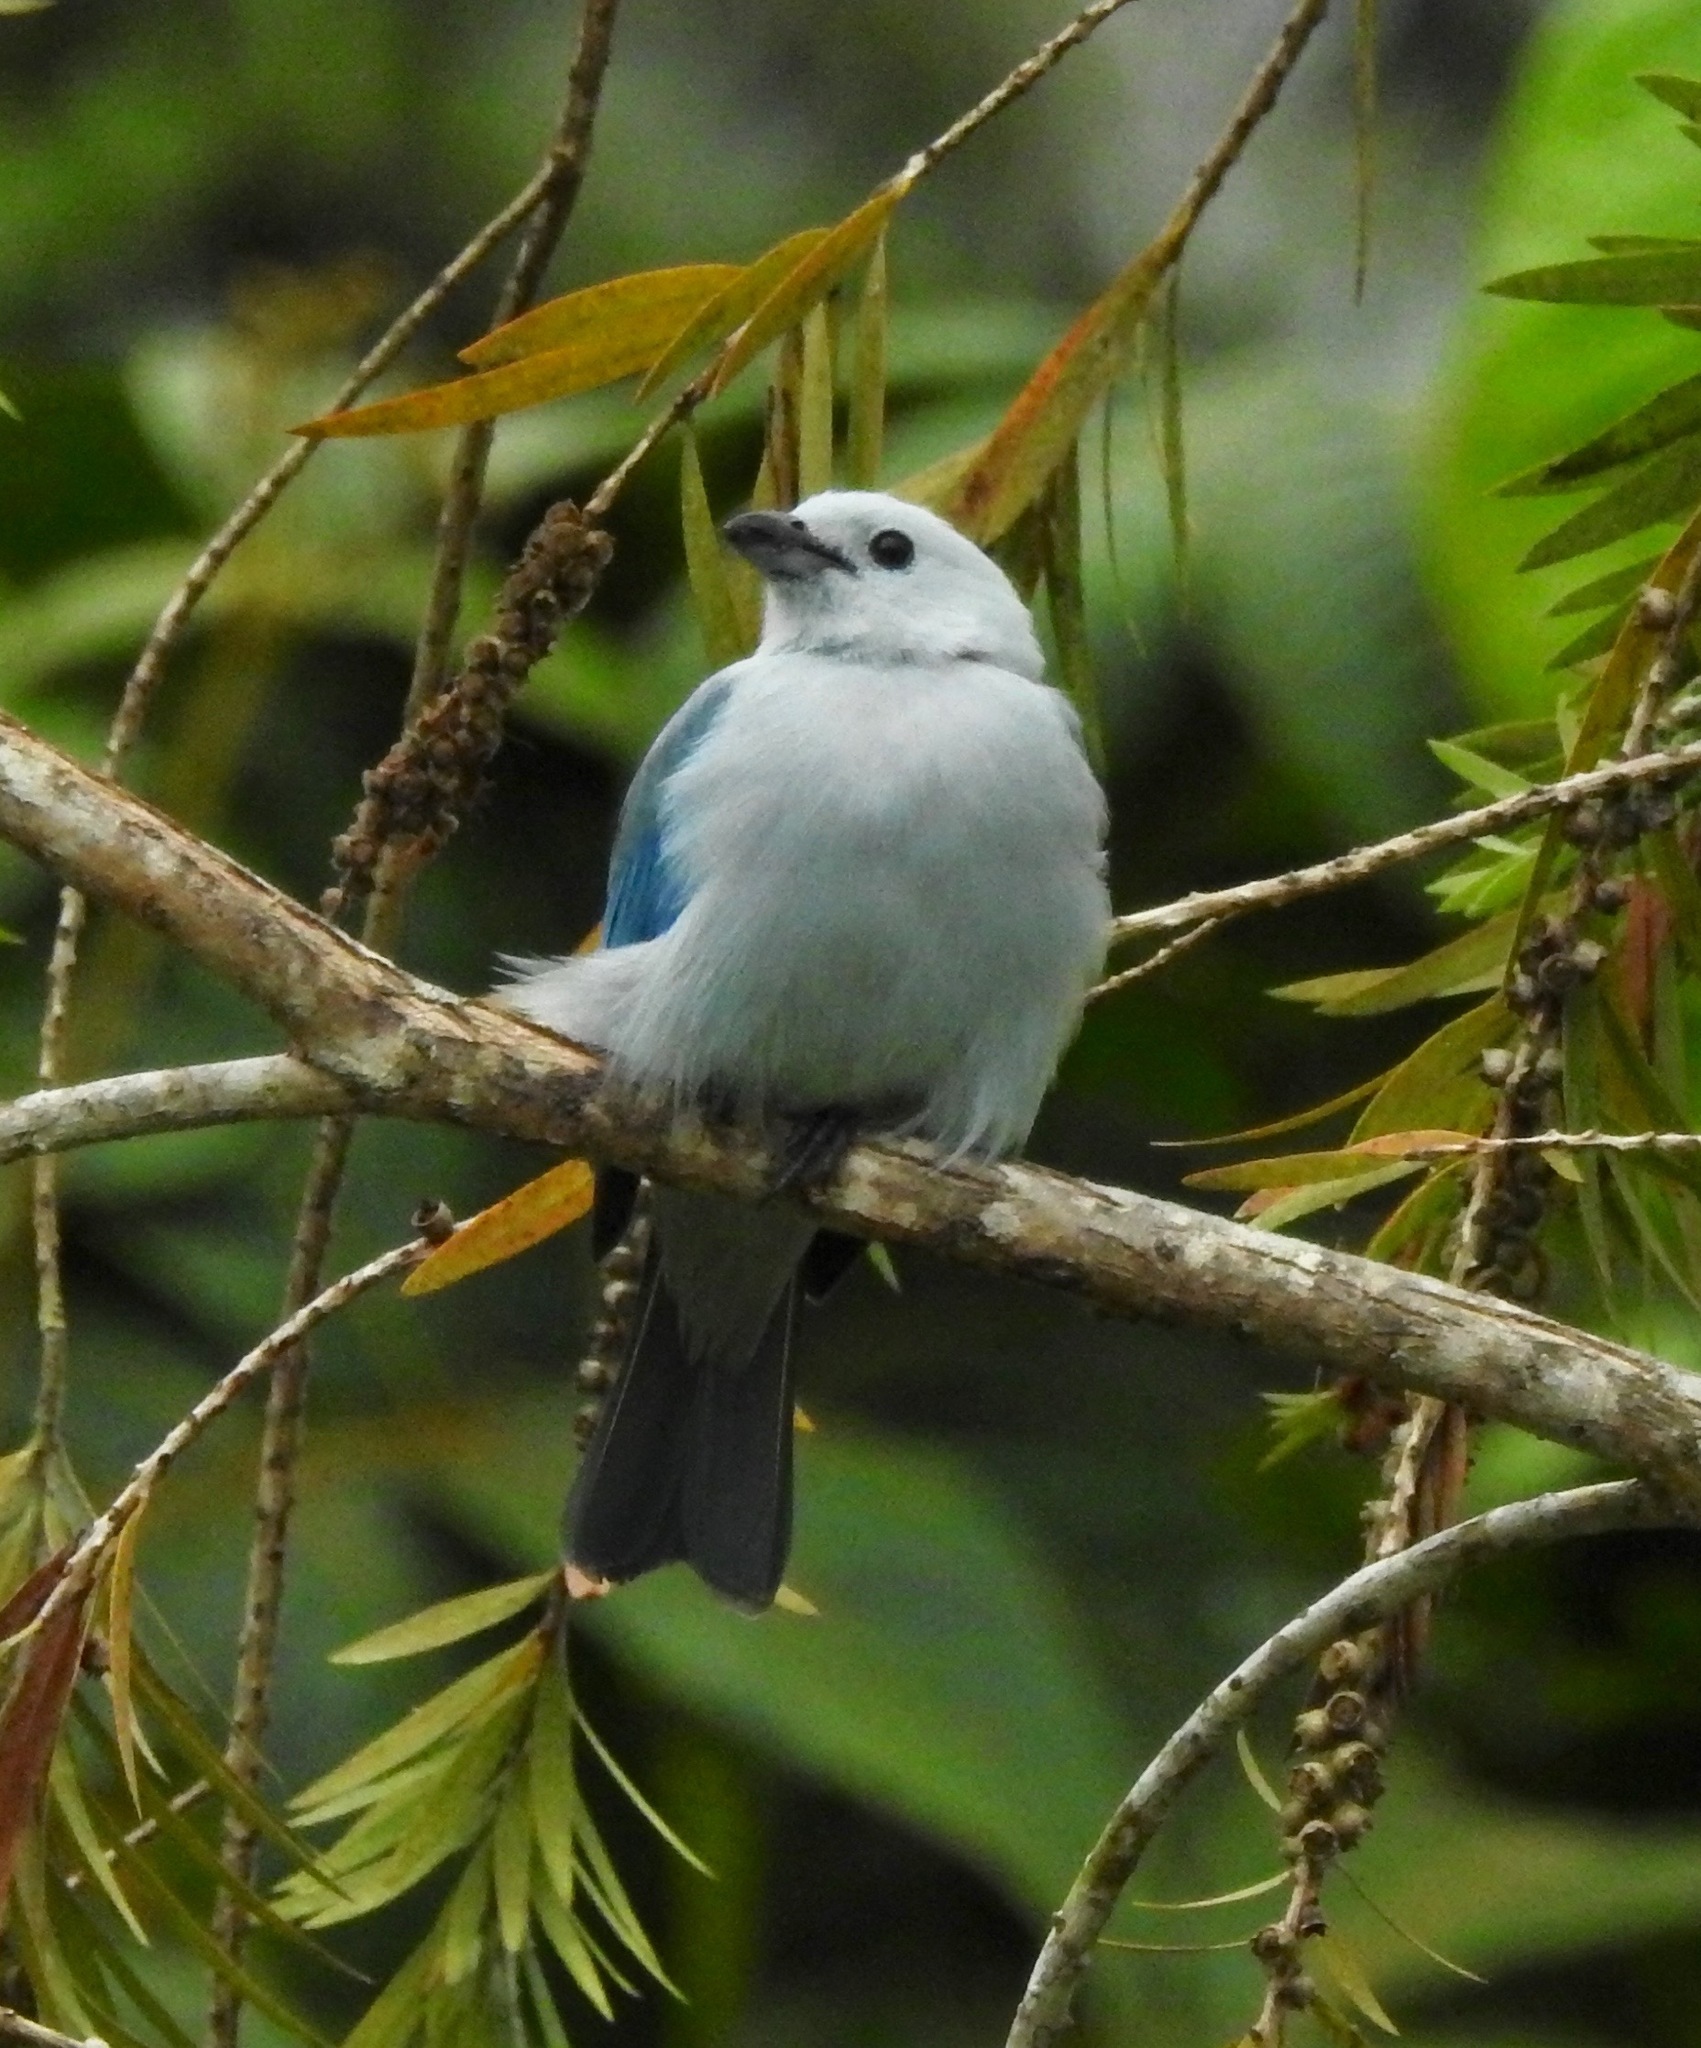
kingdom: Animalia
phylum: Chordata
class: Aves
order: Passeriformes
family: Thraupidae
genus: Thraupis
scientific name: Thraupis episcopus
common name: Blue-grey tanager
